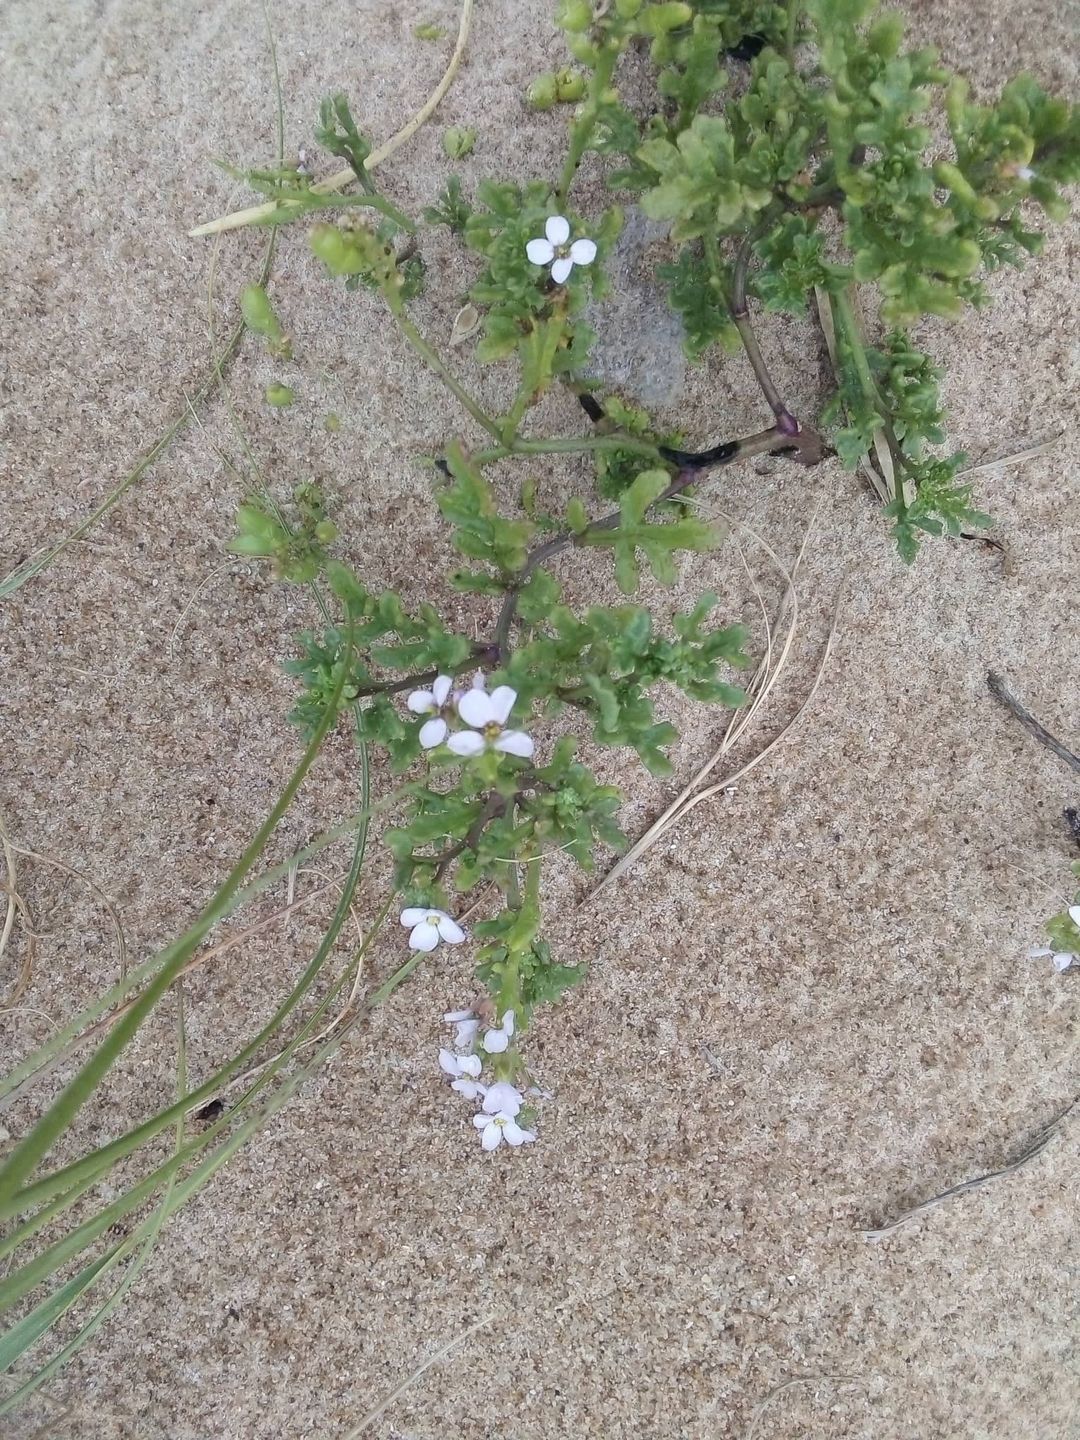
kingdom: Plantae
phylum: Tracheophyta
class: Magnoliopsida
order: Brassicales
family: Brassicaceae
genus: Cakile
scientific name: Cakile maritima
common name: Sea rocket
